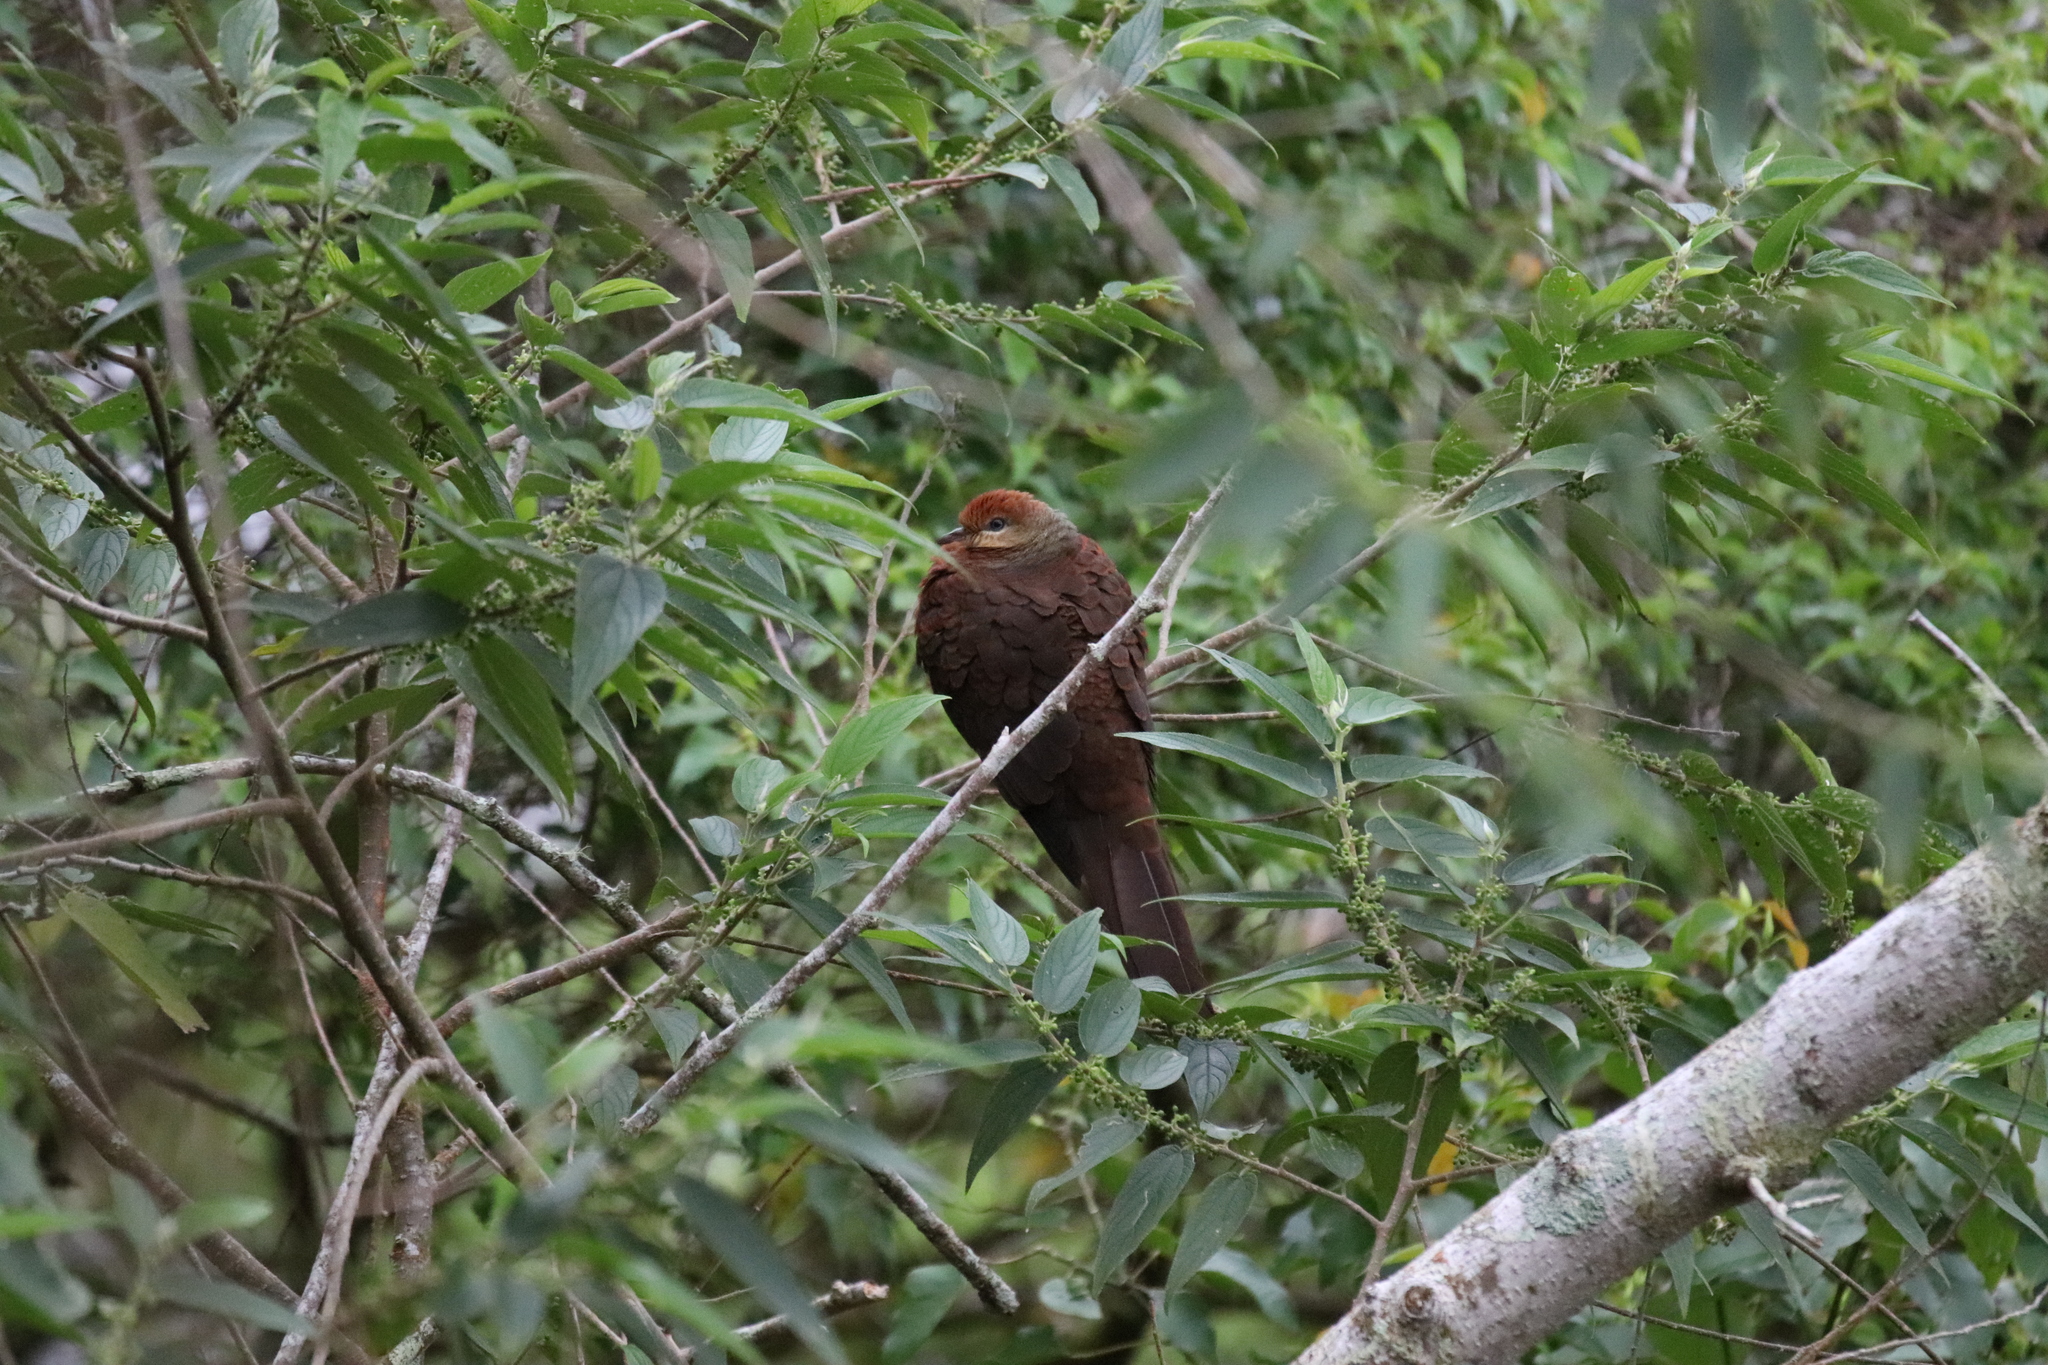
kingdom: Animalia
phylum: Chordata
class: Aves
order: Columbiformes
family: Columbidae
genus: Macropygia
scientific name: Macropygia doreya
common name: Sultan's cuckoo-dove
